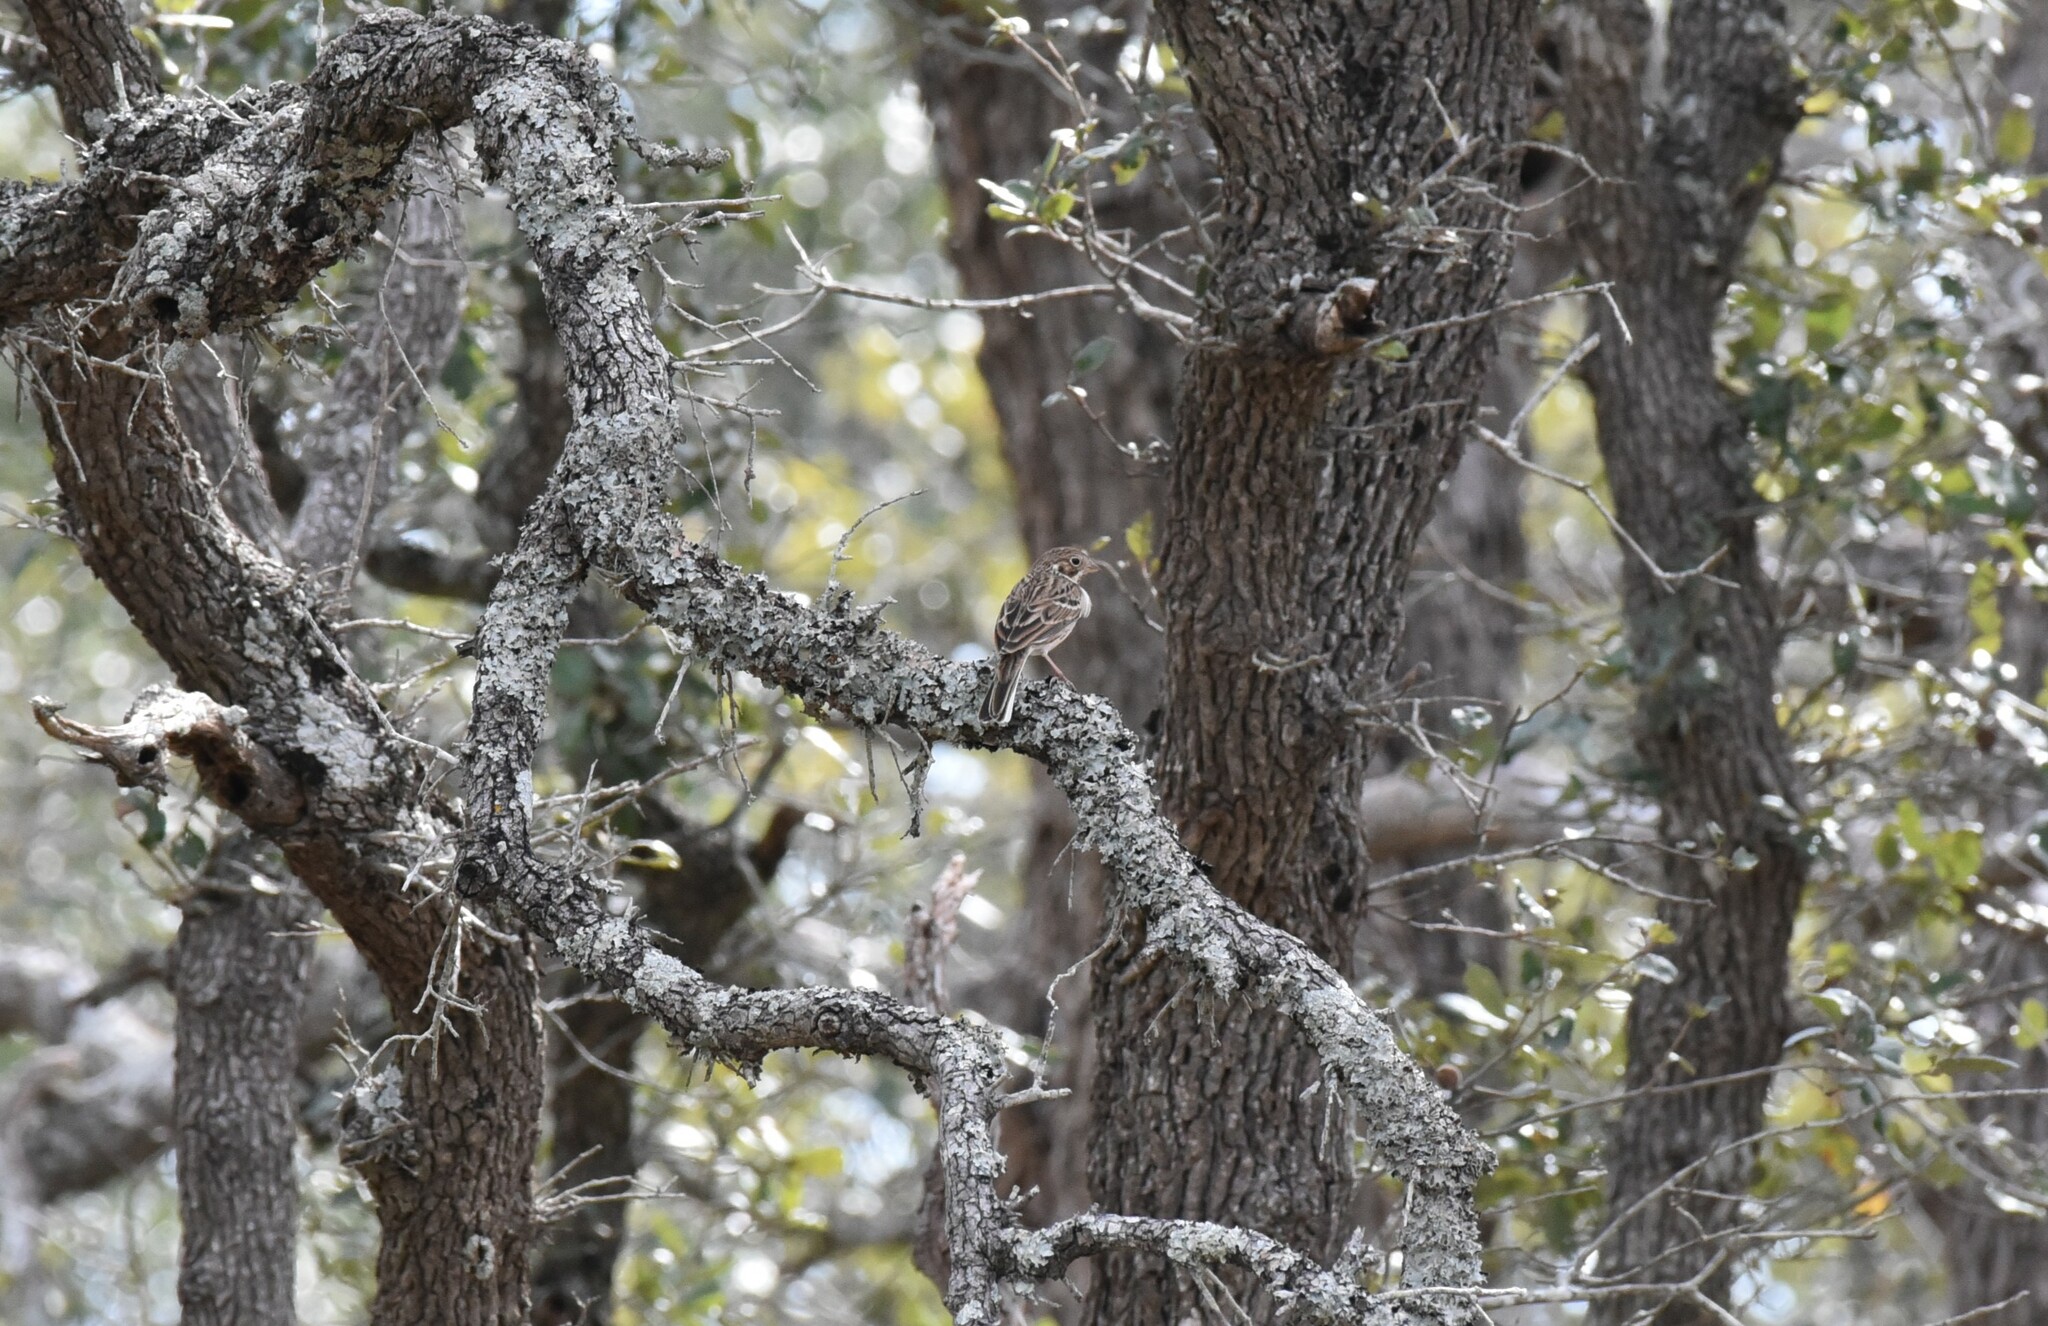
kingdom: Animalia
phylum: Chordata
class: Aves
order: Passeriformes
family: Passerellidae
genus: Pooecetes
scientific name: Pooecetes gramineus
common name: Vesper sparrow
